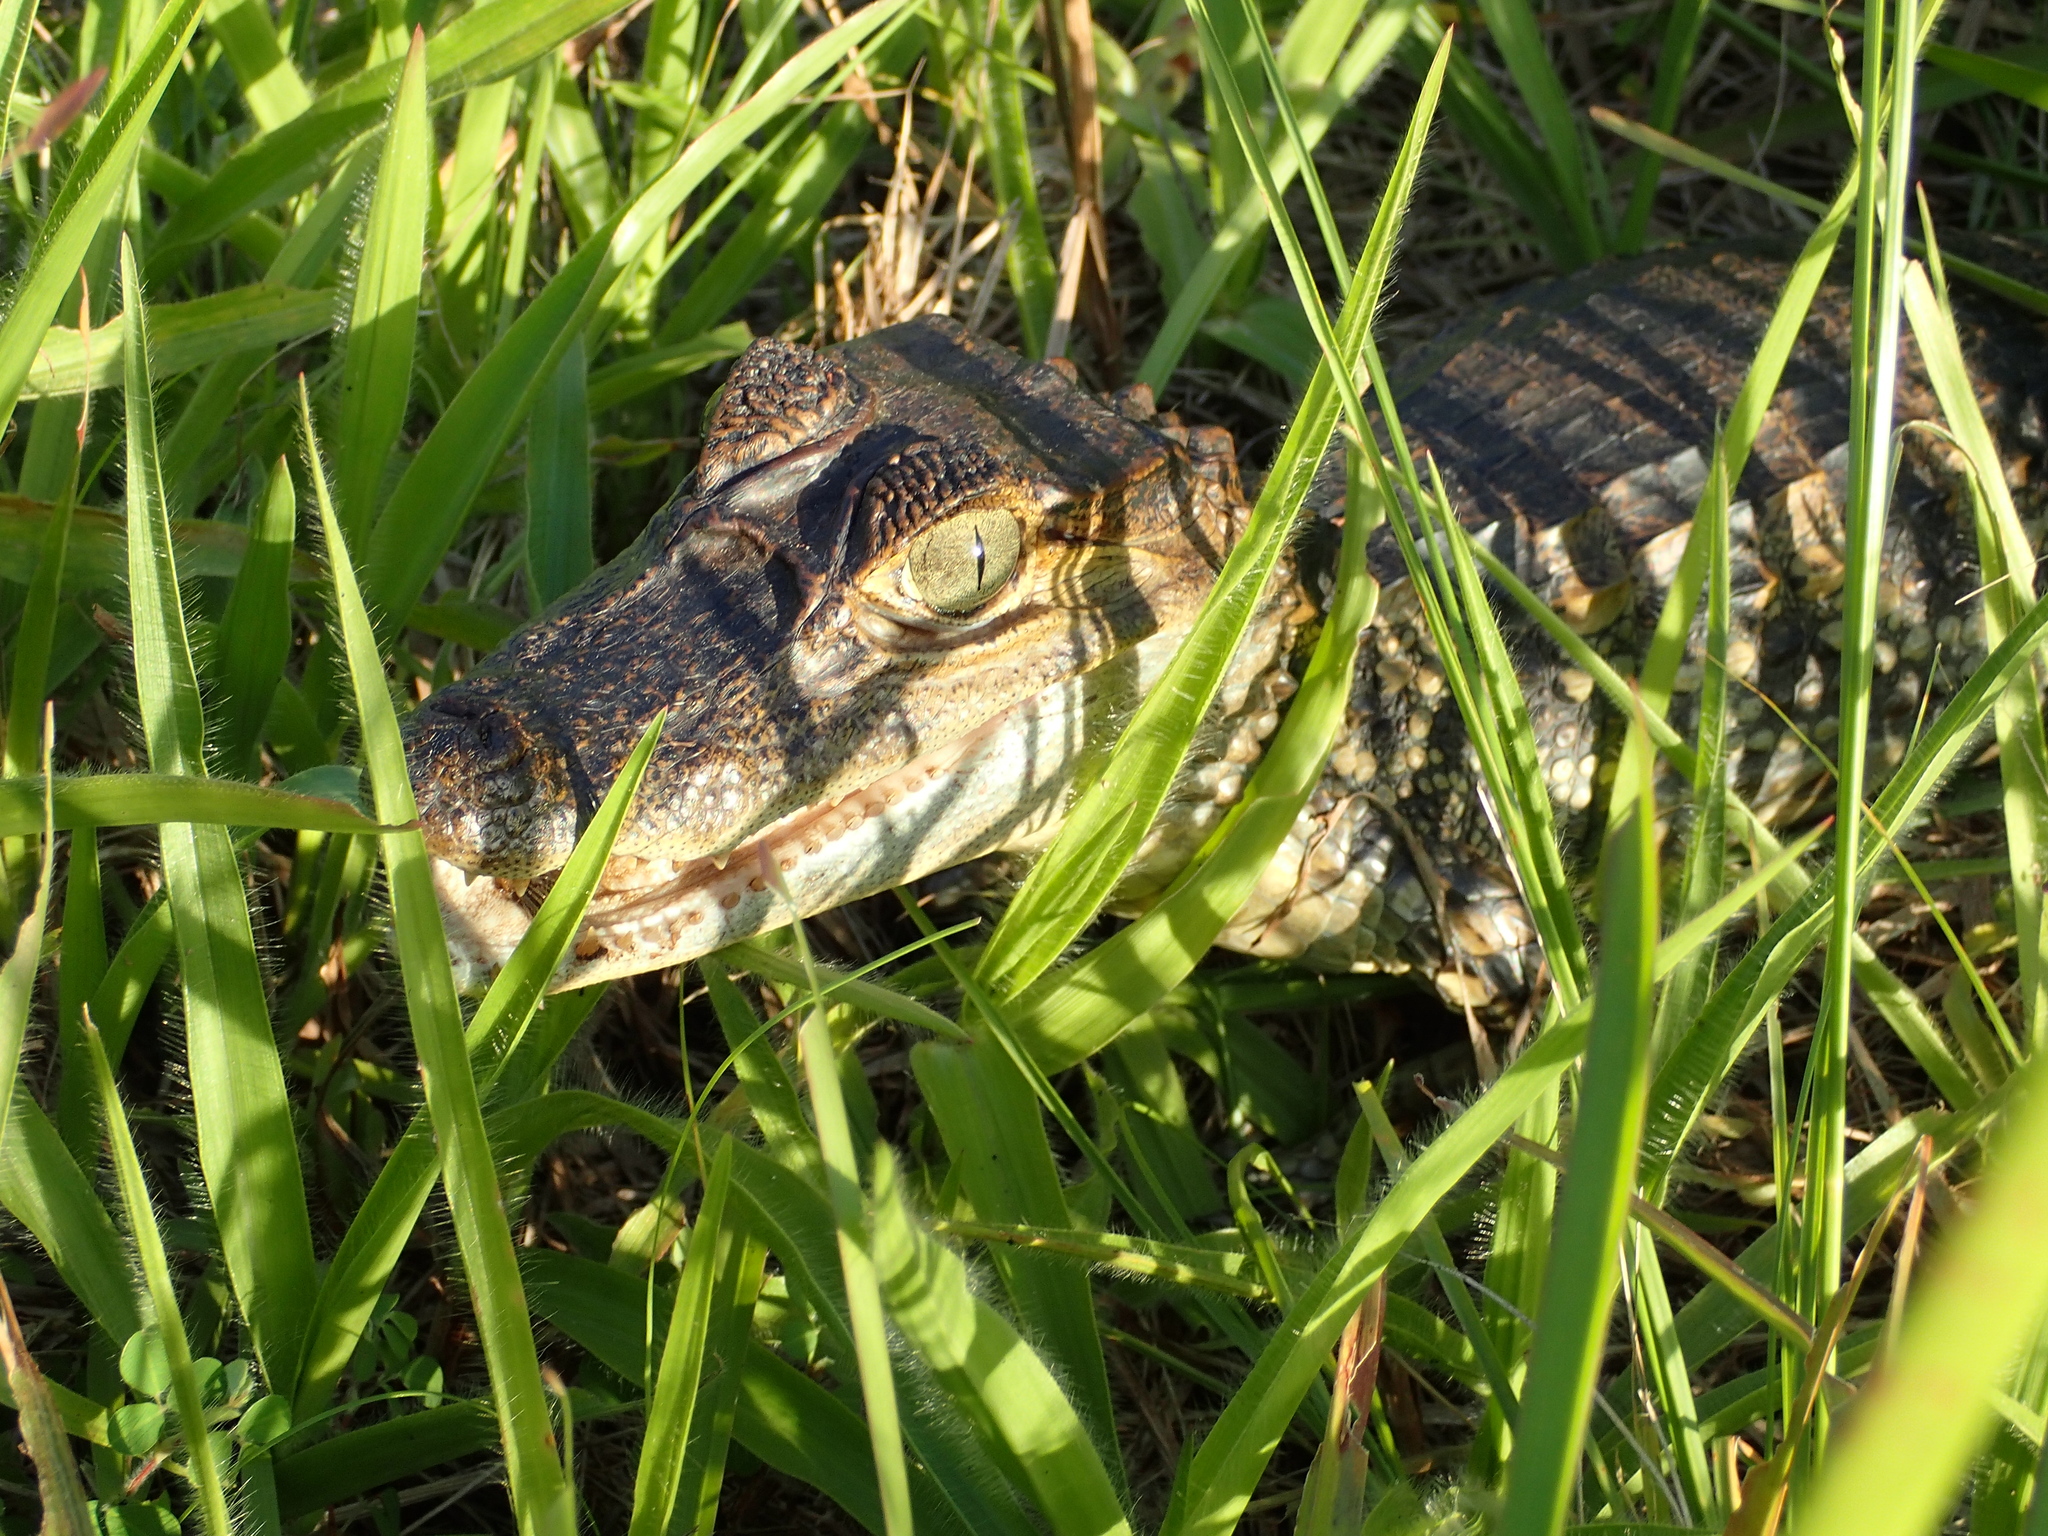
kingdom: Animalia
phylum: Chordata
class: Crocodylia
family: Alligatoridae
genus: Caiman
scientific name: Caiman crocodilus
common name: Common caiman
